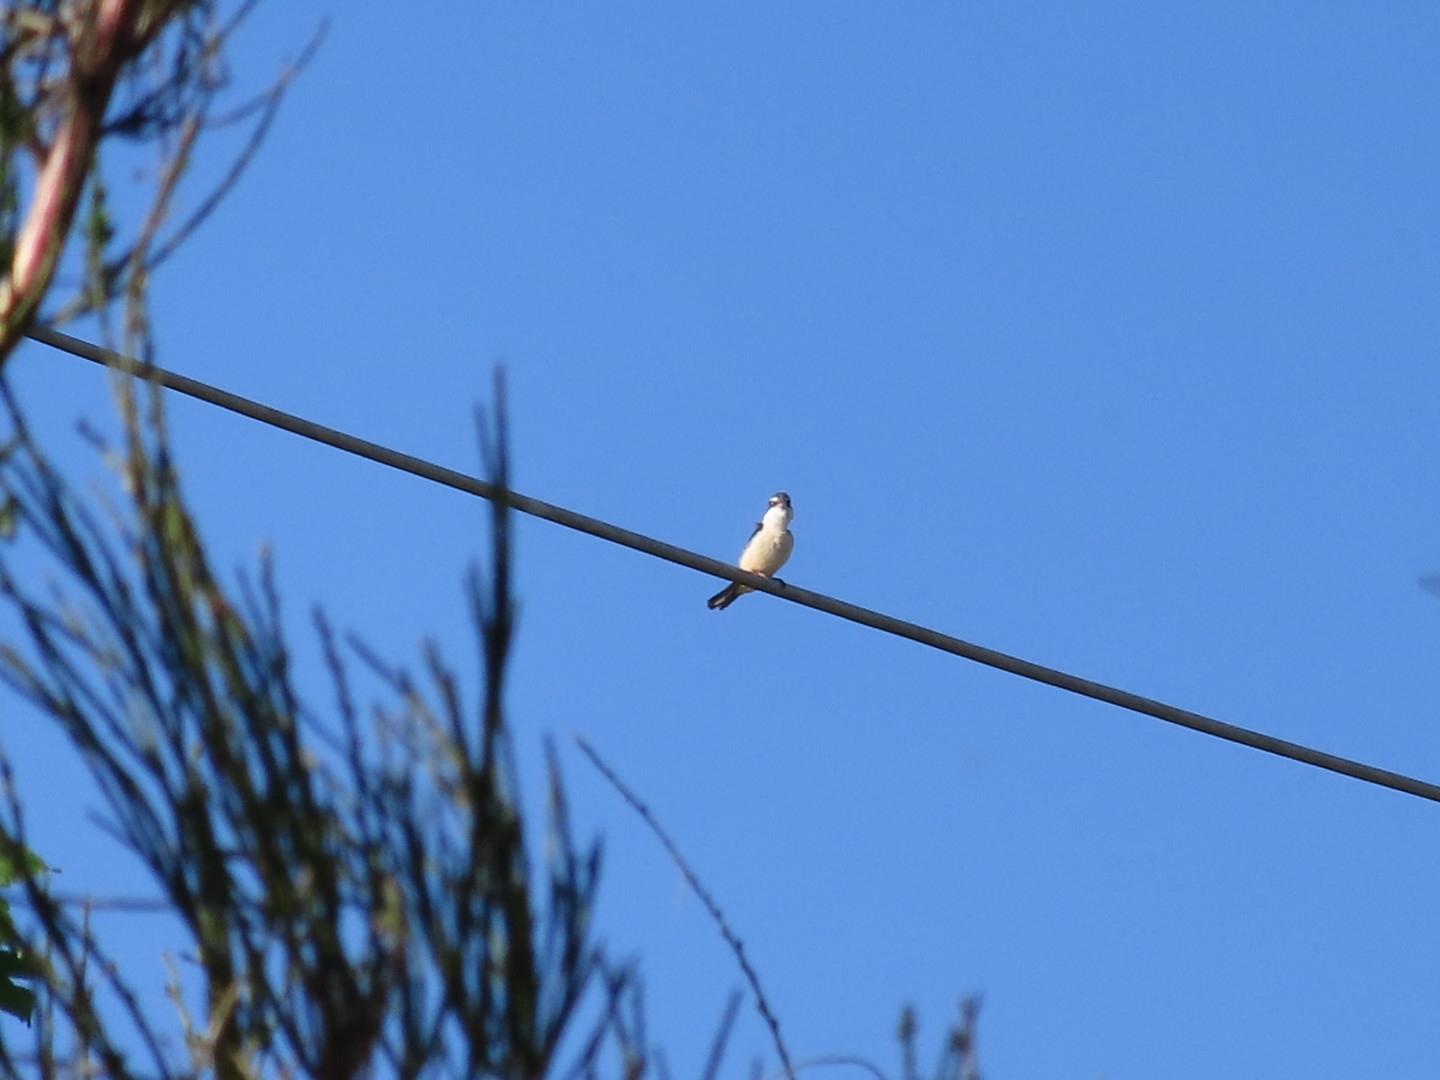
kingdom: Animalia
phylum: Chordata
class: Aves
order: Coraciiformes
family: Alcedinidae
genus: Todiramphus
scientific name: Todiramphus sanctus
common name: Sacred kingfisher
